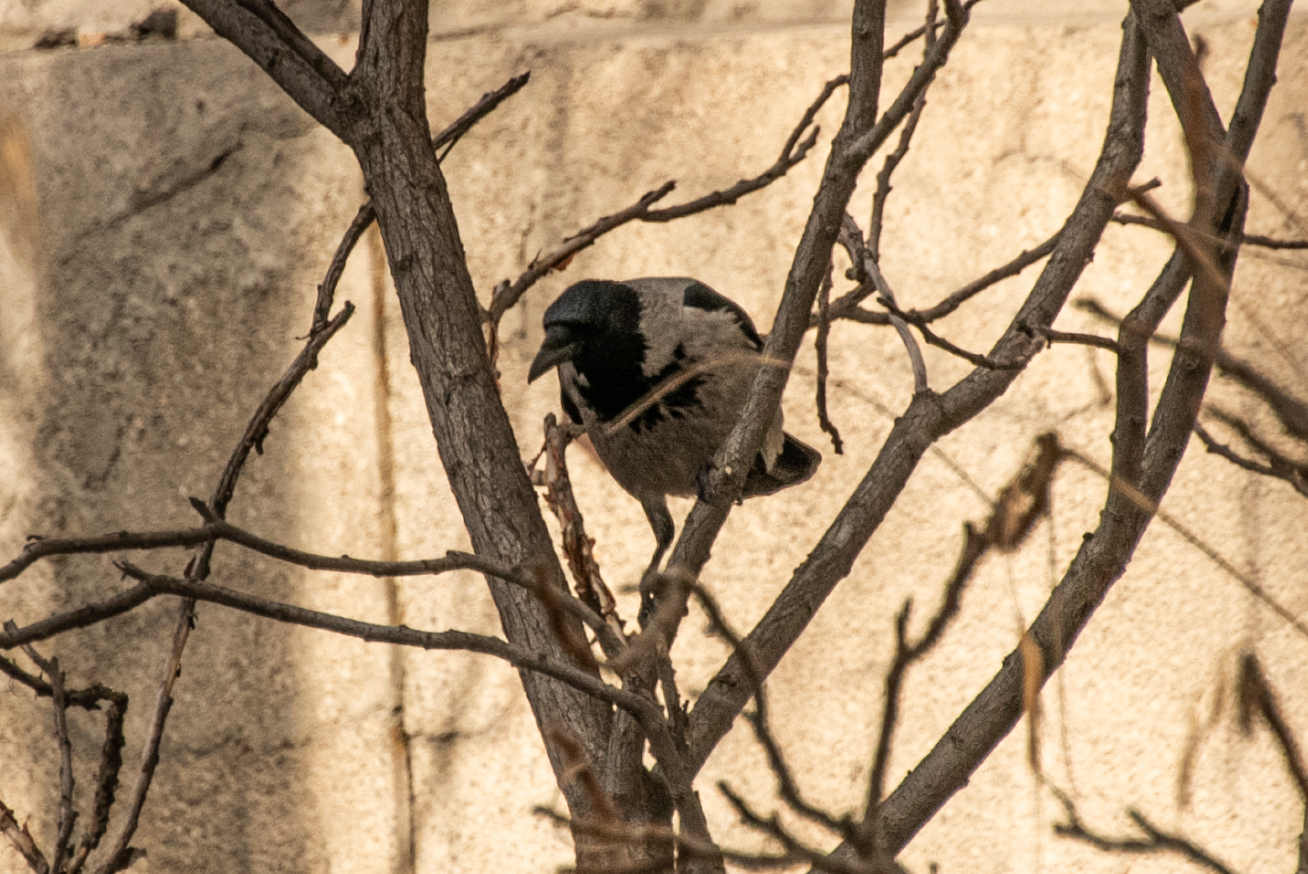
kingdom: Animalia
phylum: Chordata
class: Aves
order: Passeriformes
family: Corvidae
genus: Corvus
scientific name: Corvus cornix
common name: Hooded crow
